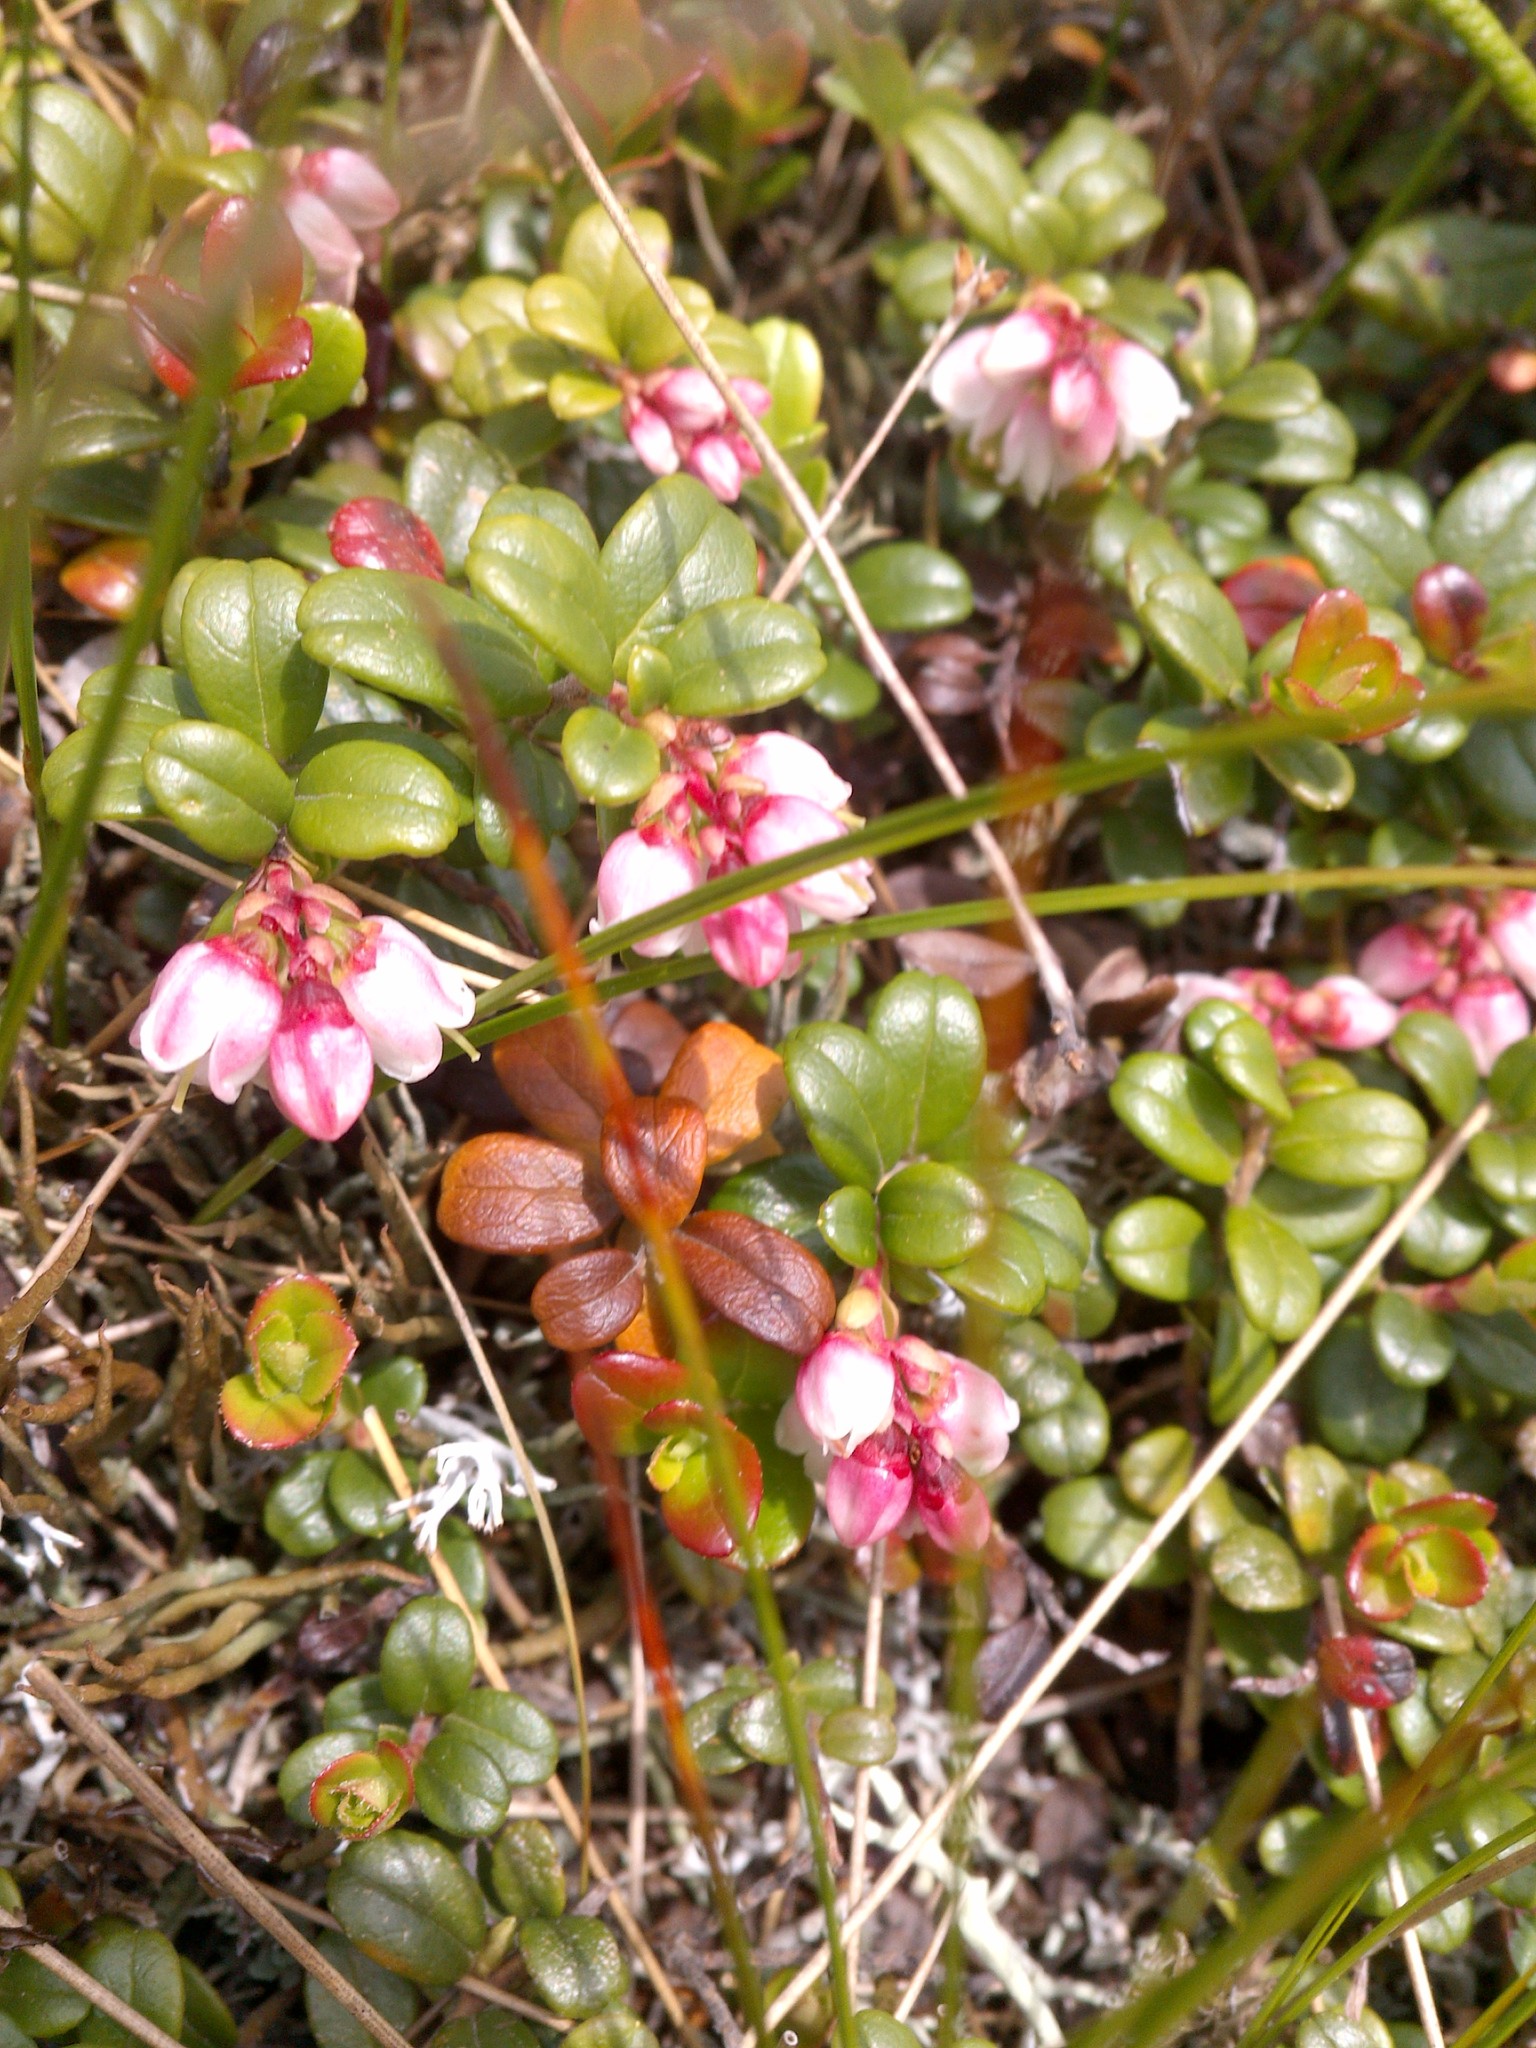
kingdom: Plantae
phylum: Tracheophyta
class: Magnoliopsida
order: Ericales
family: Ericaceae
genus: Vaccinium
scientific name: Vaccinium vitis-idaea
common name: Cowberry
